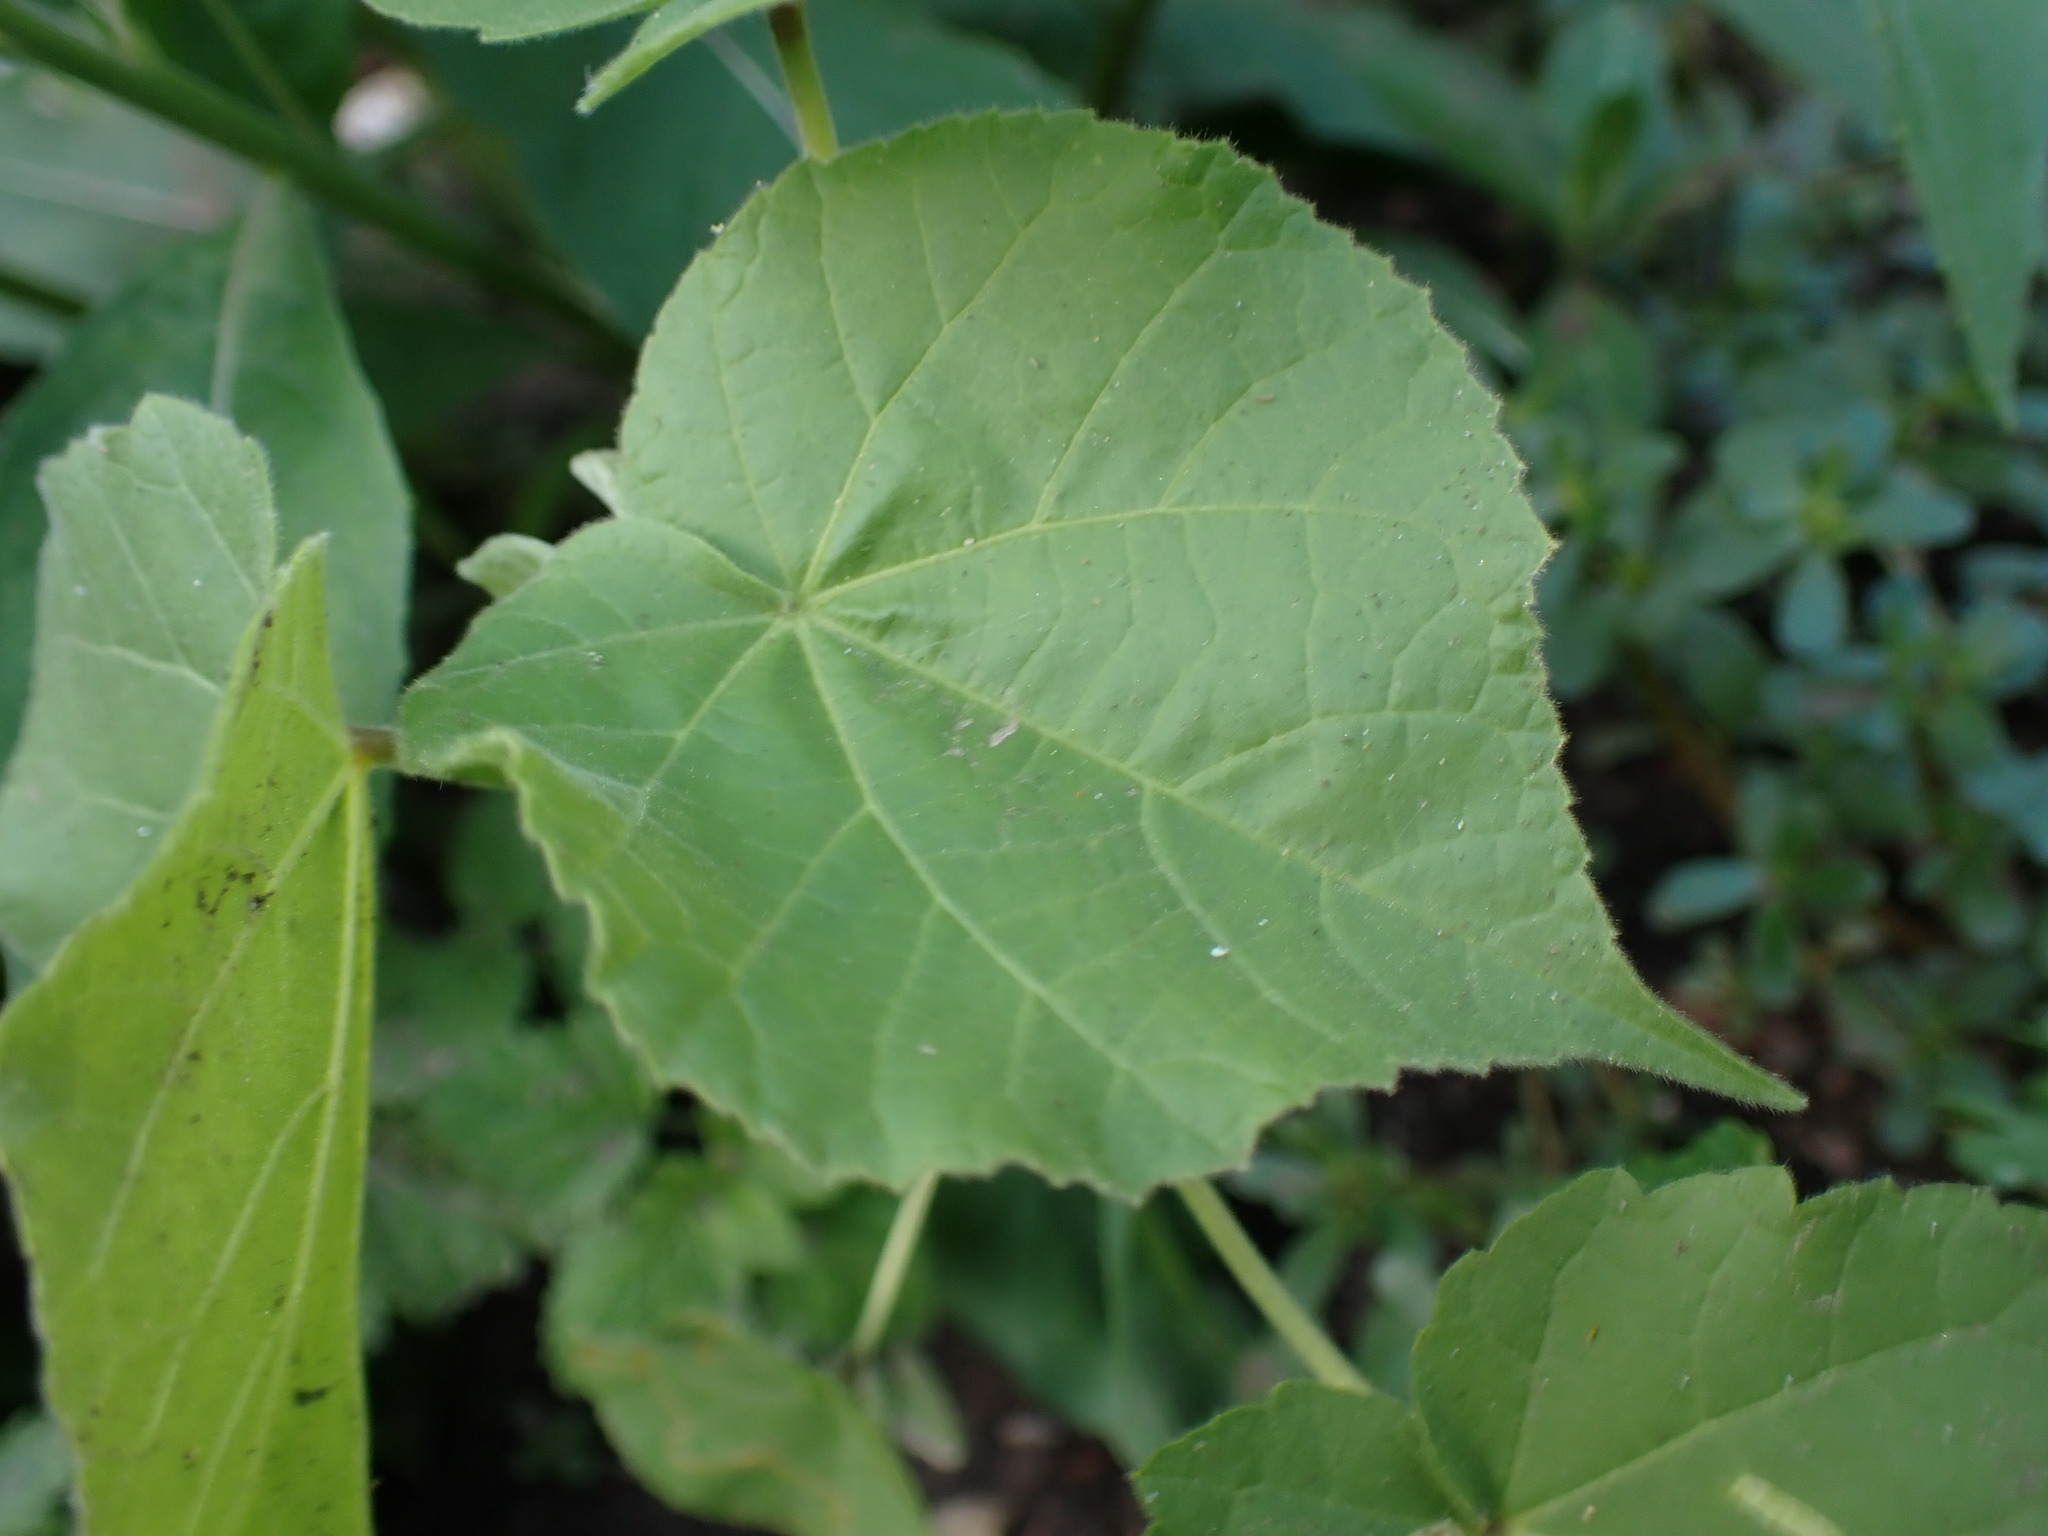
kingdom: Animalia
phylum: Arthropoda
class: Insecta
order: Diptera
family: Agromyzidae
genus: Calycomyza
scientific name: Calycomyza malvae
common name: Mallow leaf miner
